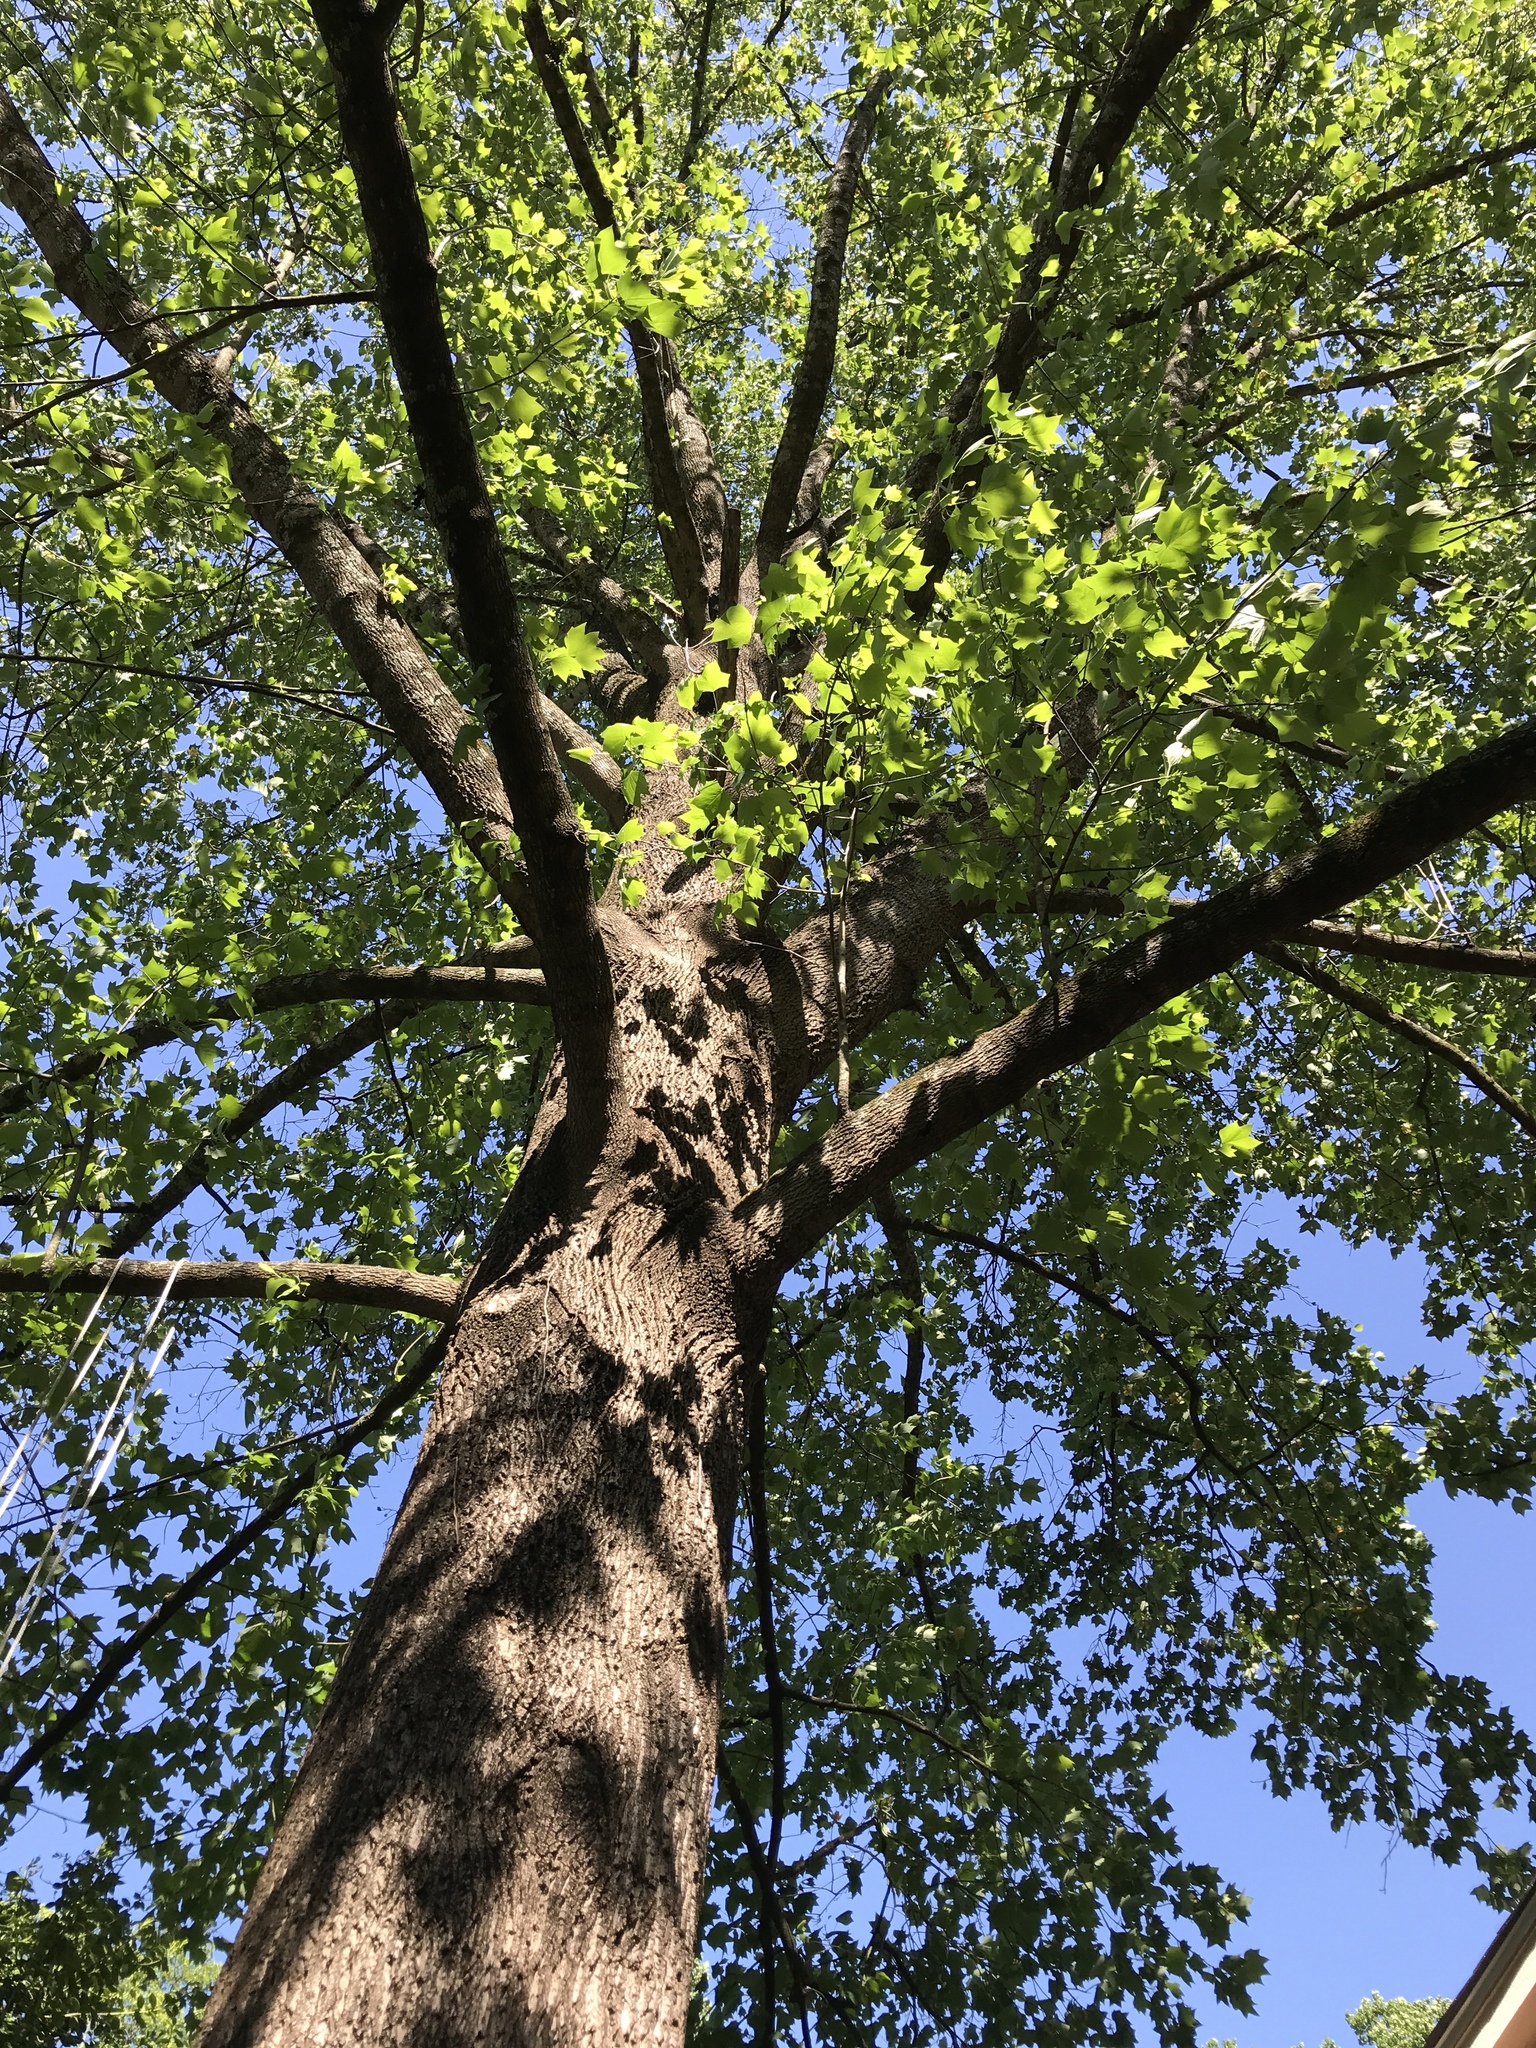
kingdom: Plantae
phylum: Tracheophyta
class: Magnoliopsida
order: Magnoliales
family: Magnoliaceae
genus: Liriodendron
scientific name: Liriodendron tulipifera
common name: Tulip tree
